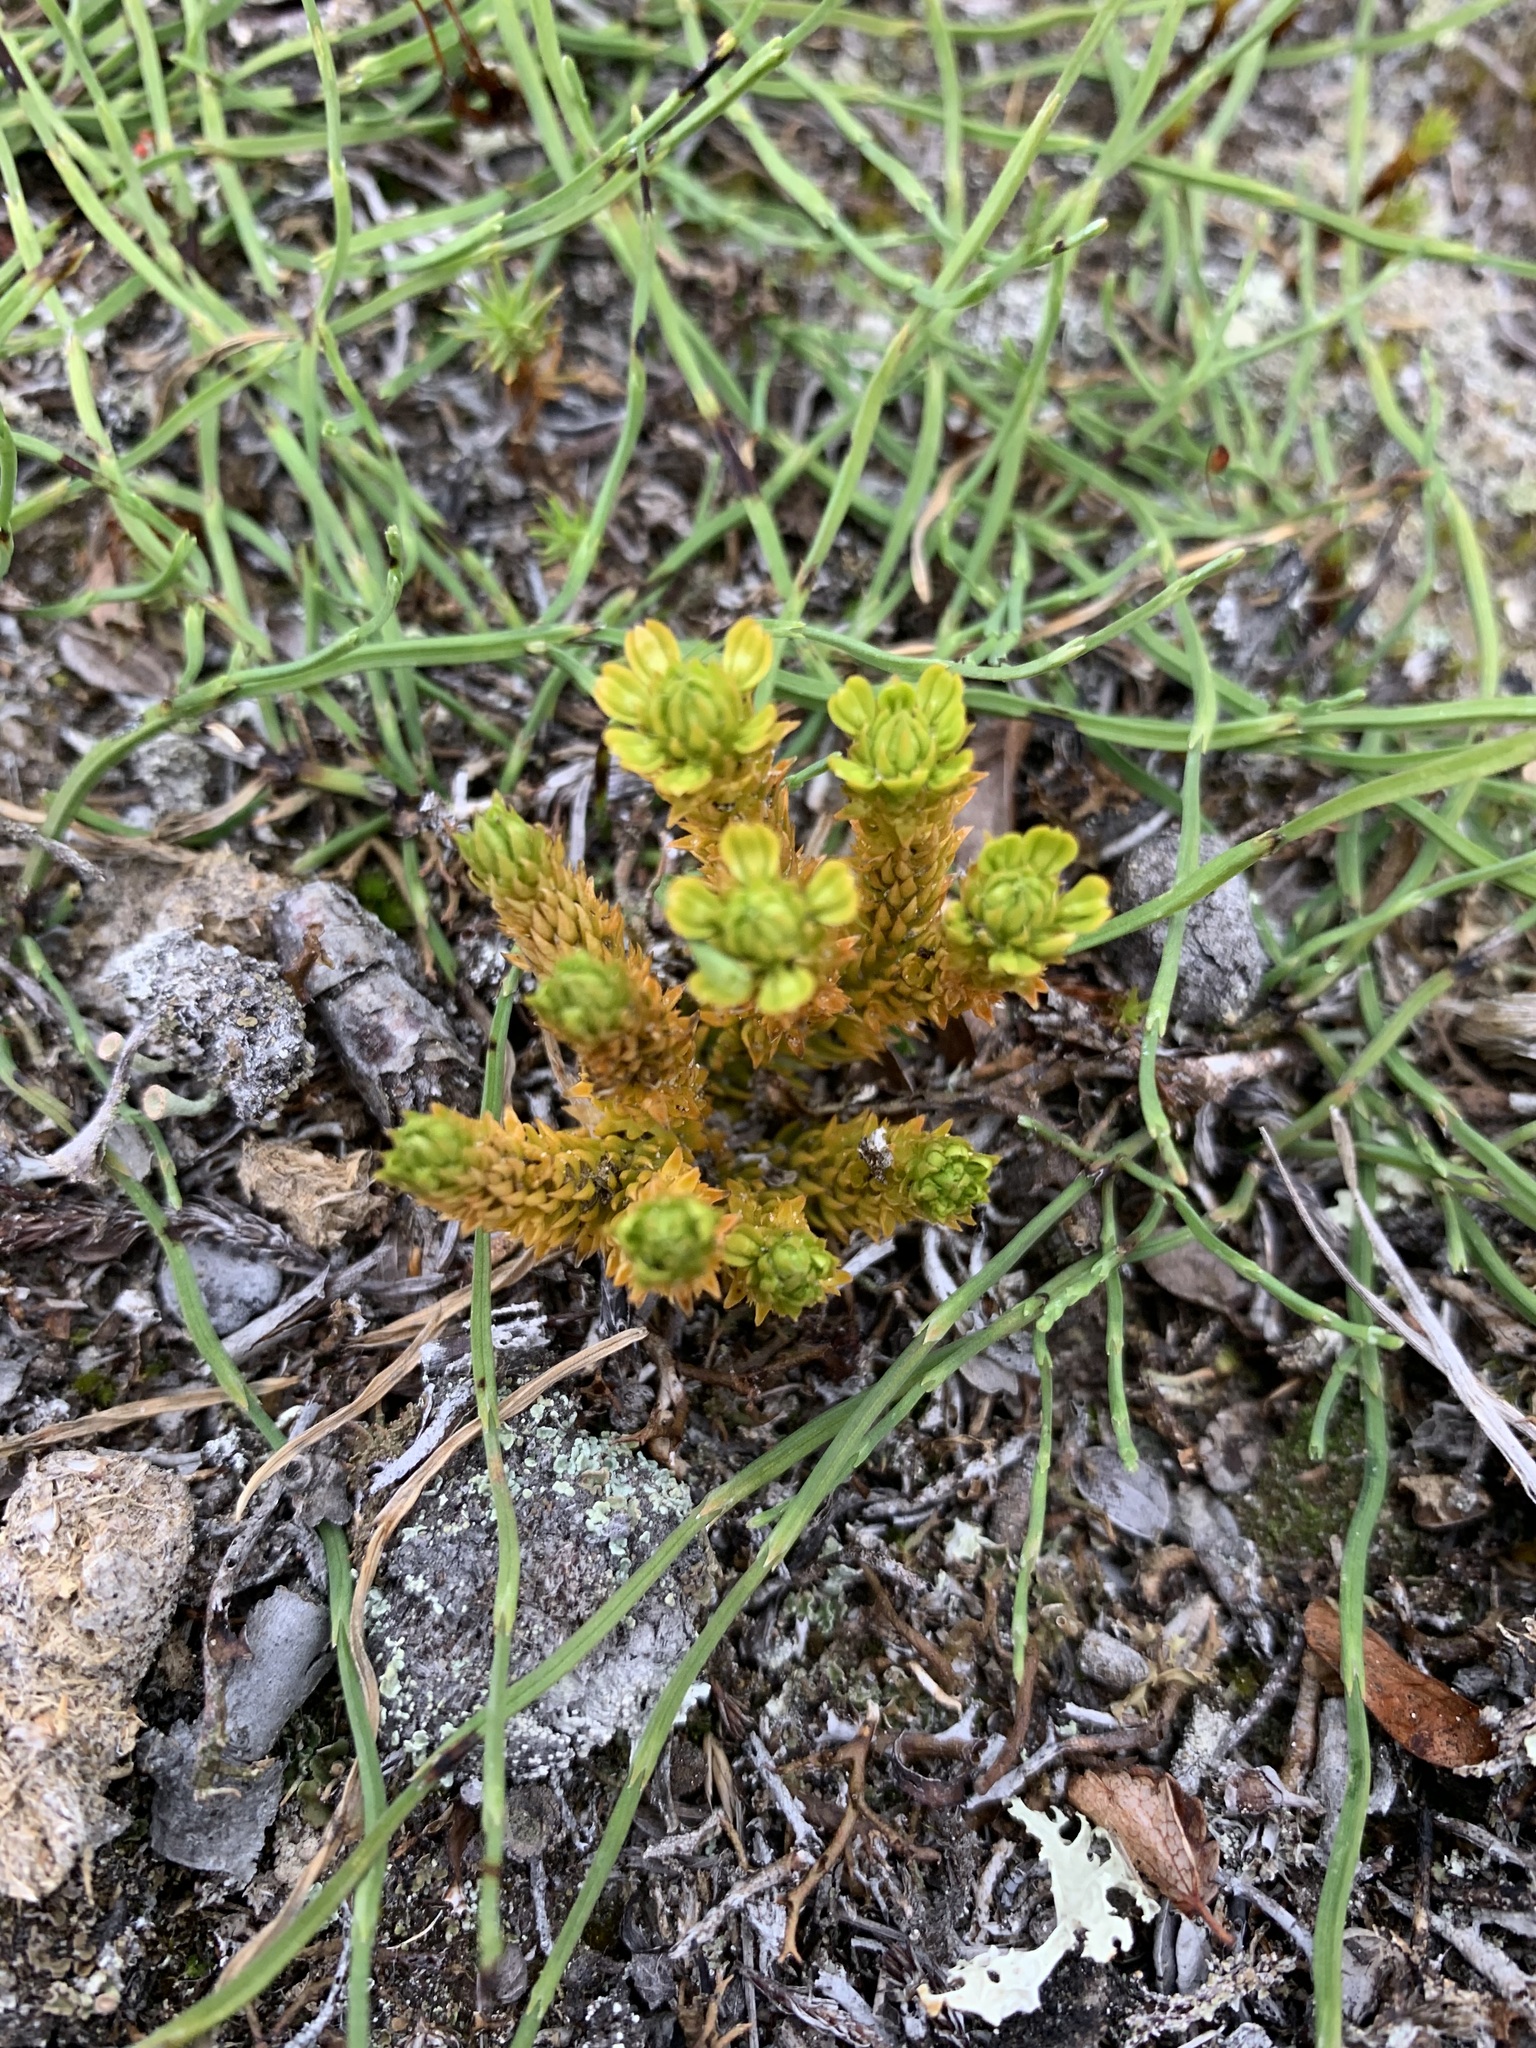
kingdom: Plantae
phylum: Tracheophyta
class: Lycopodiopsida
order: Lycopodiales
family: Lycopodiaceae
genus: Huperzia
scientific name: Huperzia selago
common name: Northern firmoss
